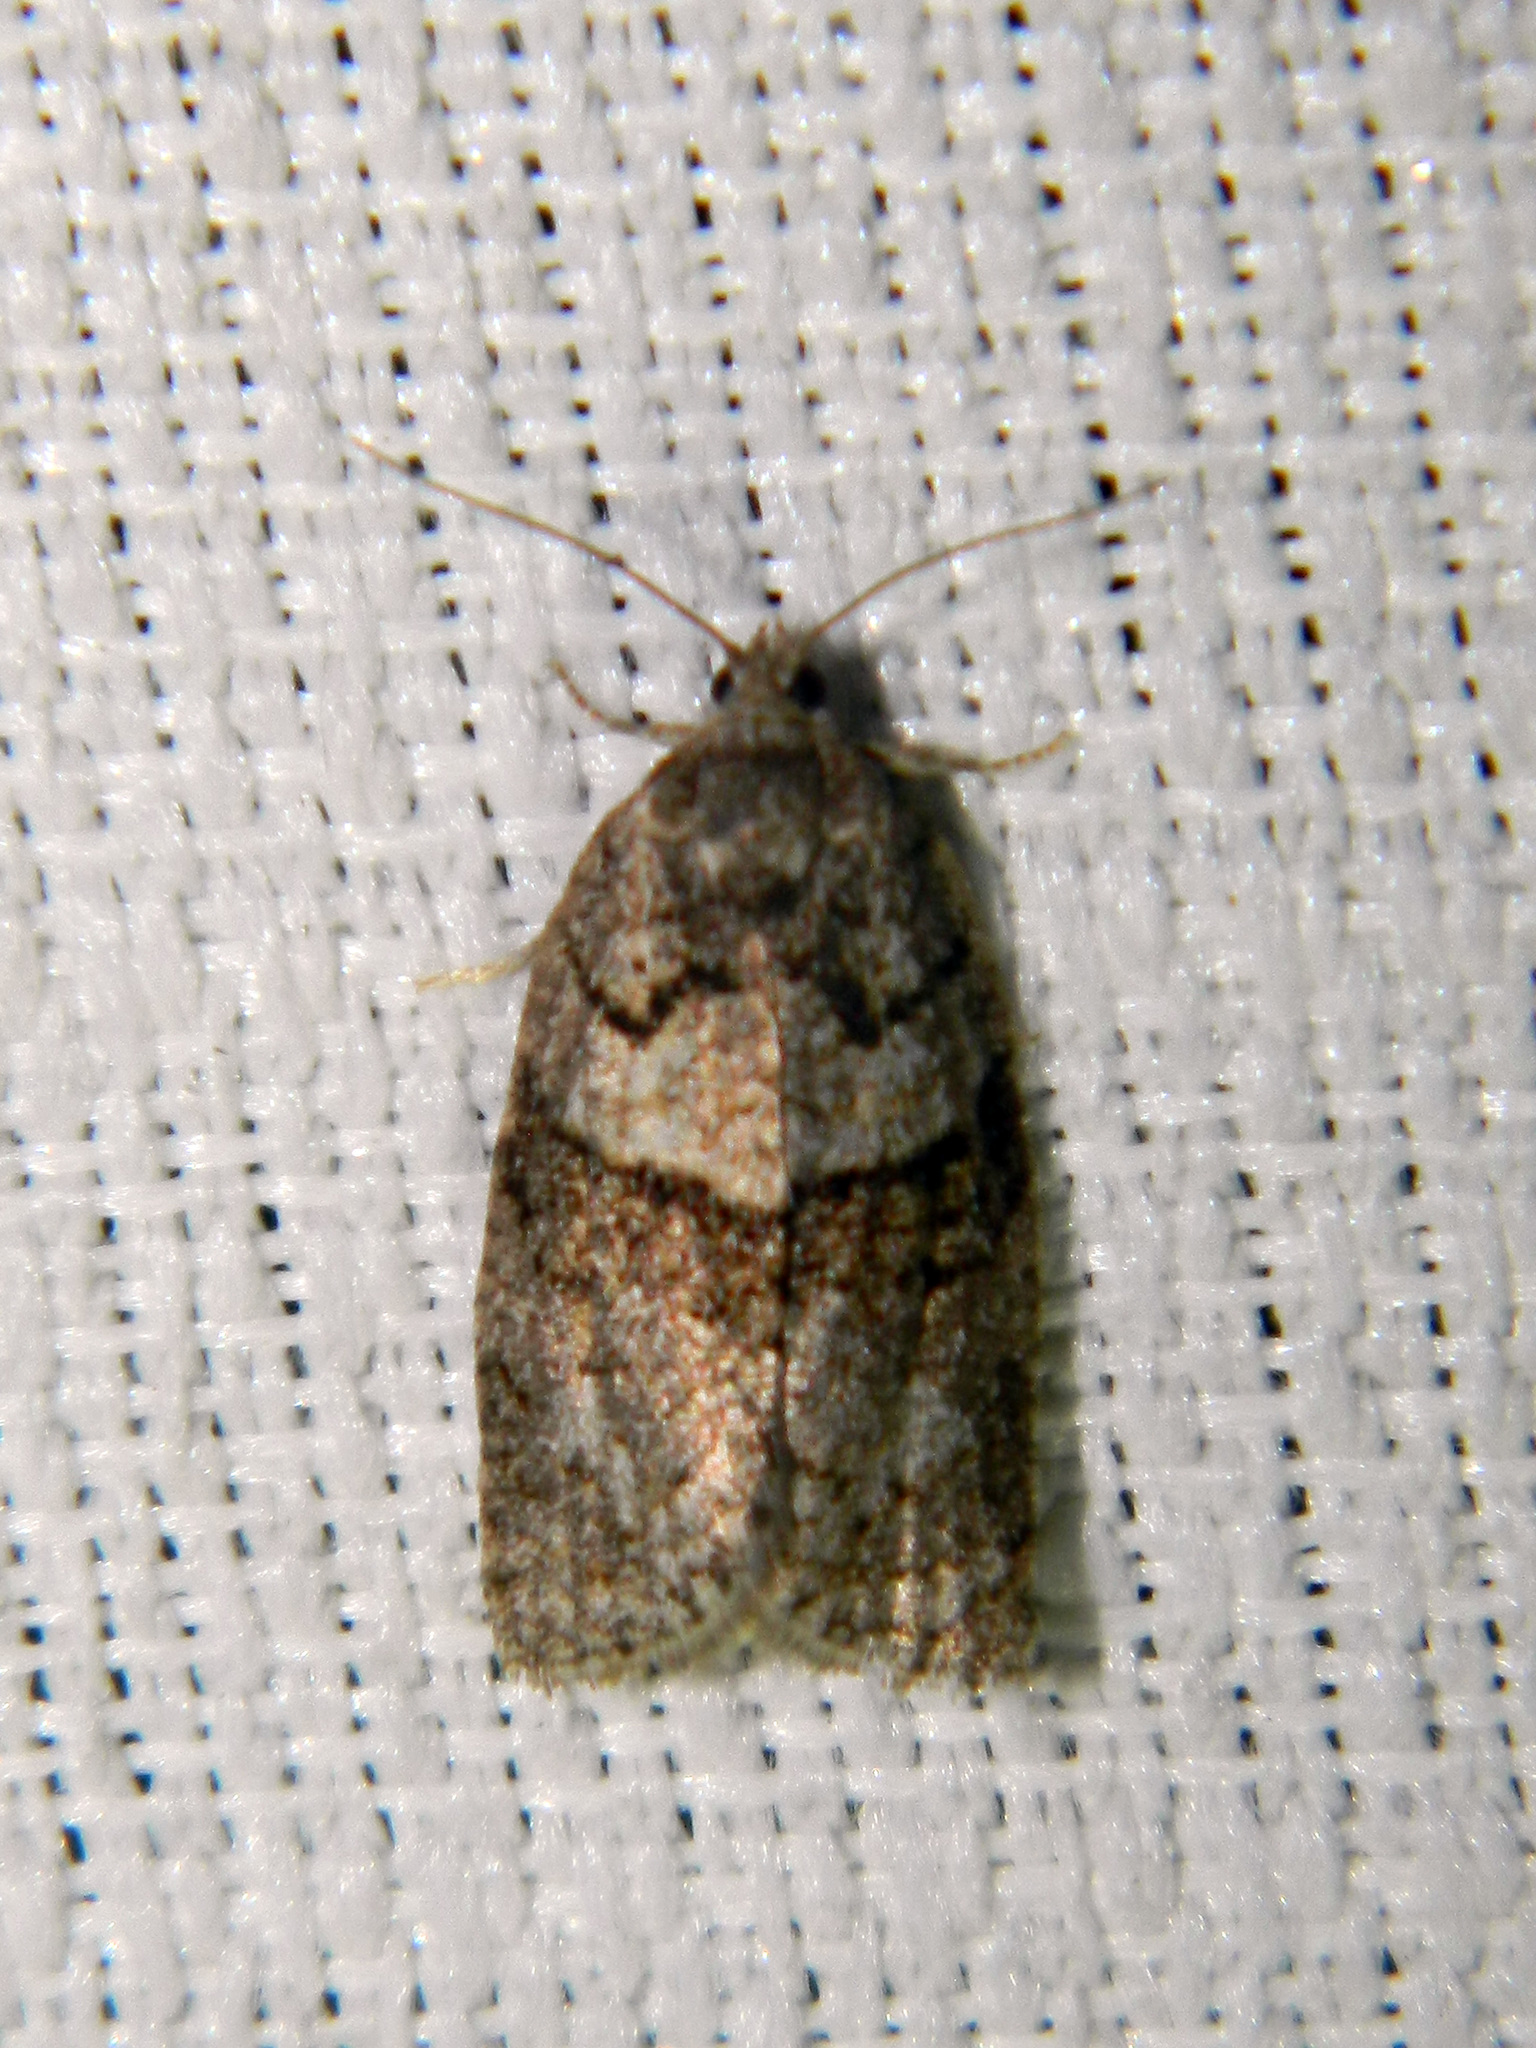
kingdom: Animalia
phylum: Arthropoda
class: Insecta
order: Lepidoptera
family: Tortricidae
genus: Syndemis
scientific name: Syndemis afflictana
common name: Gray leafroller moth
